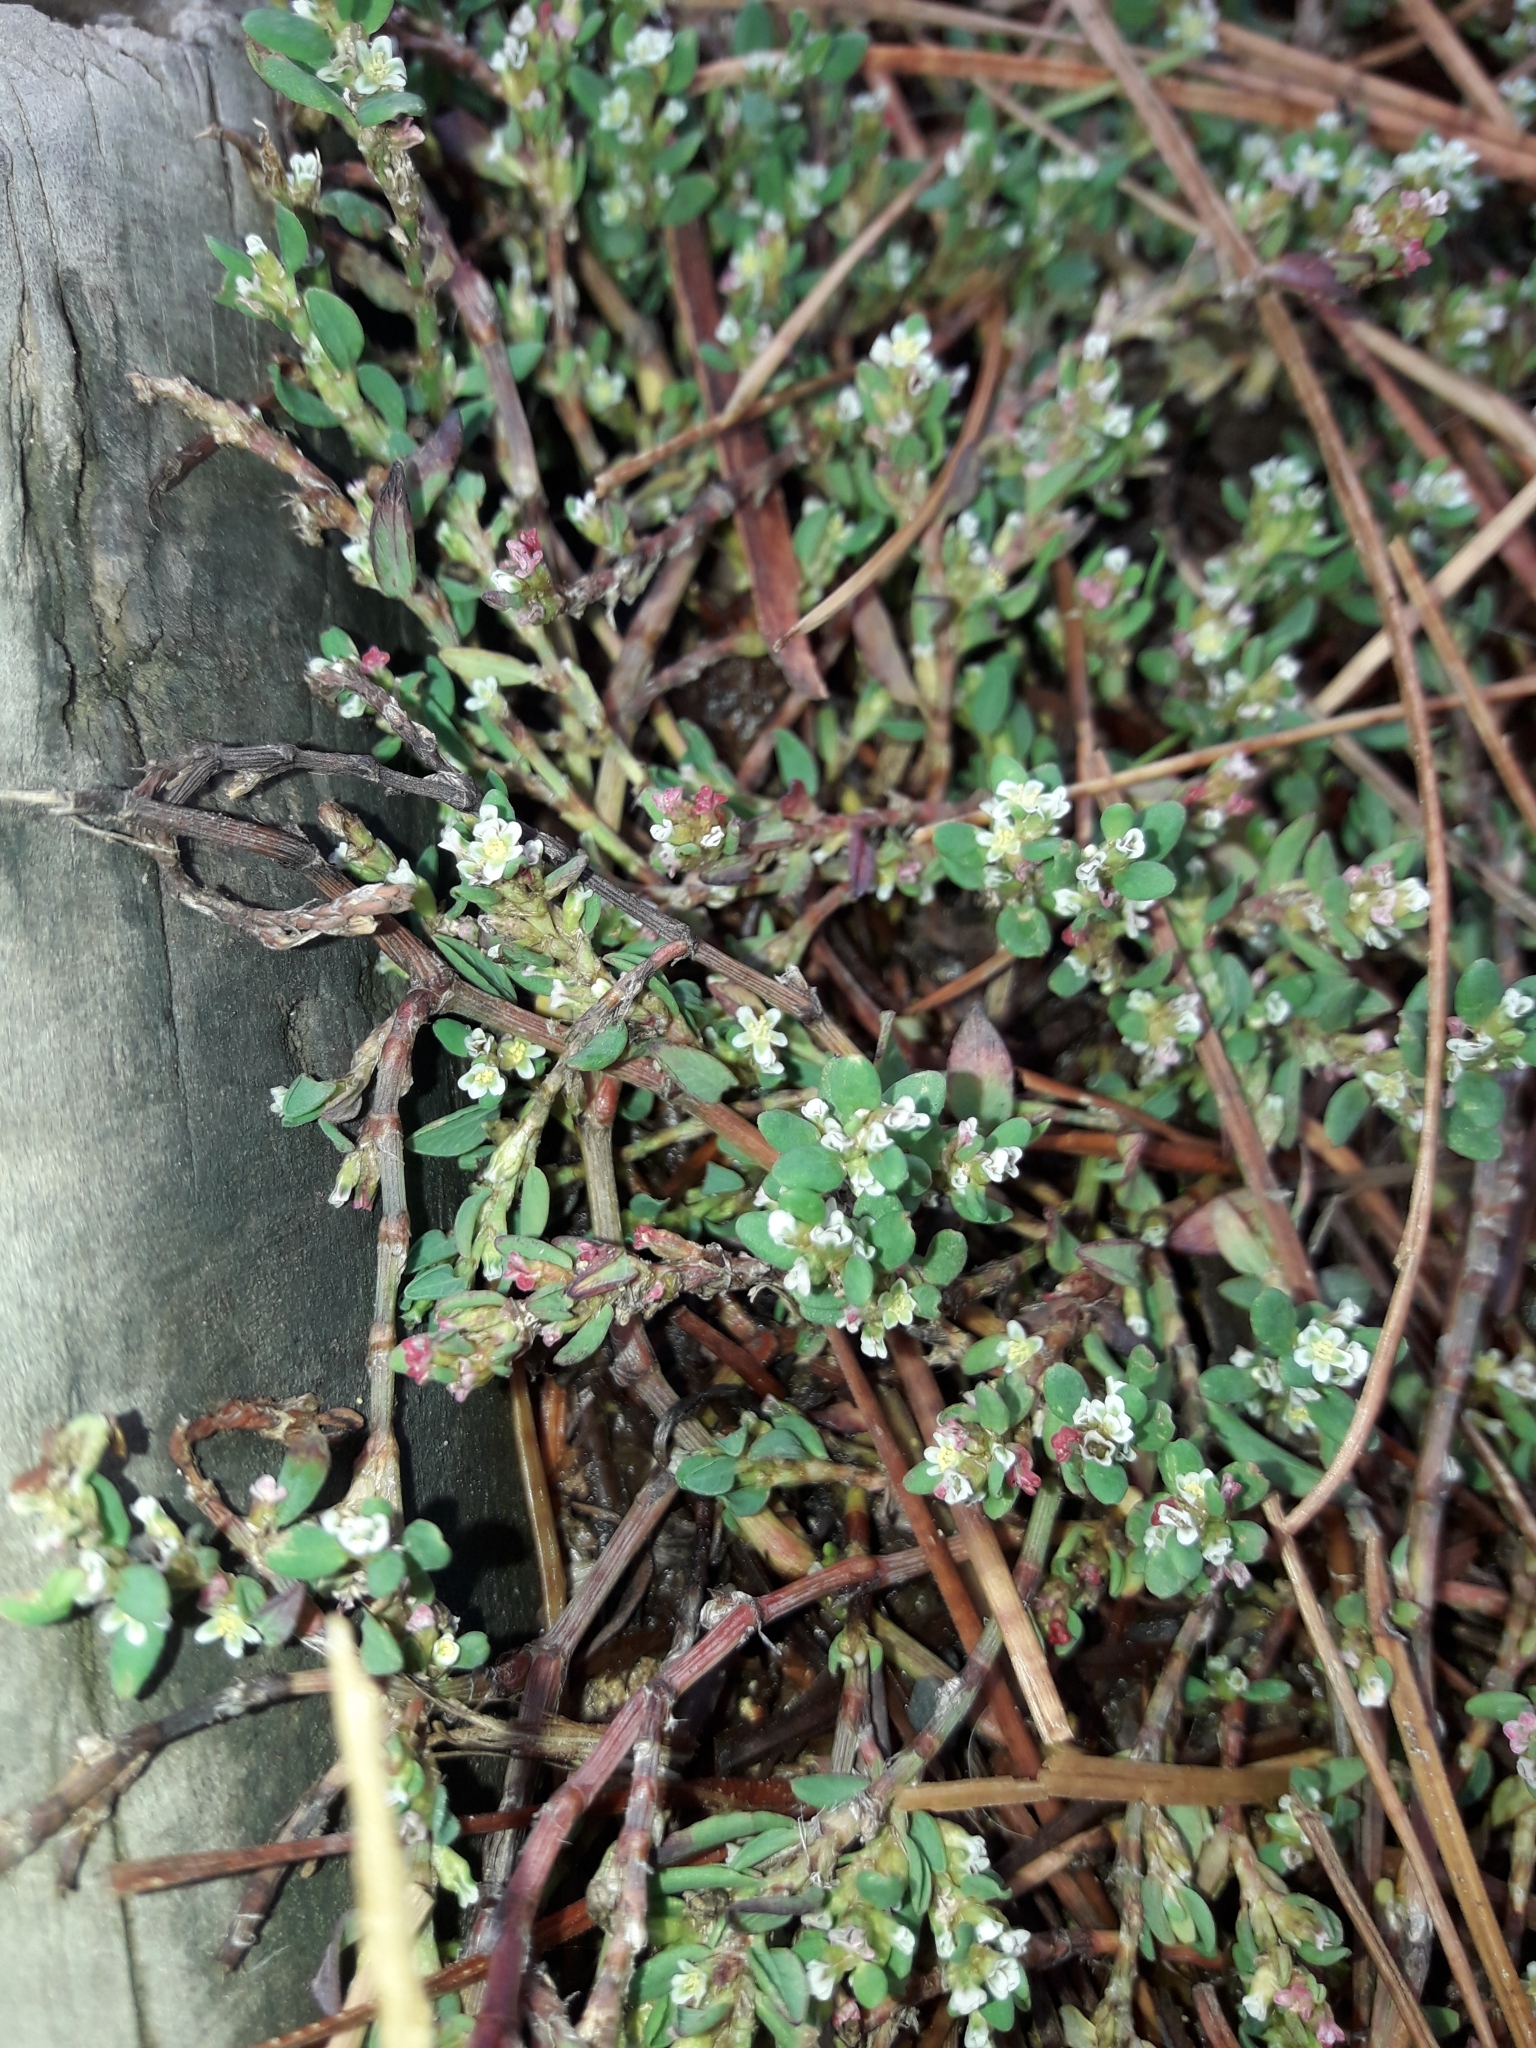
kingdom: Plantae
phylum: Tracheophyta
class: Magnoliopsida
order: Caryophyllales
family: Polygonaceae
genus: Polygonum
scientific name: Polygonum arenastrum
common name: Equal-leaved knotgrass
